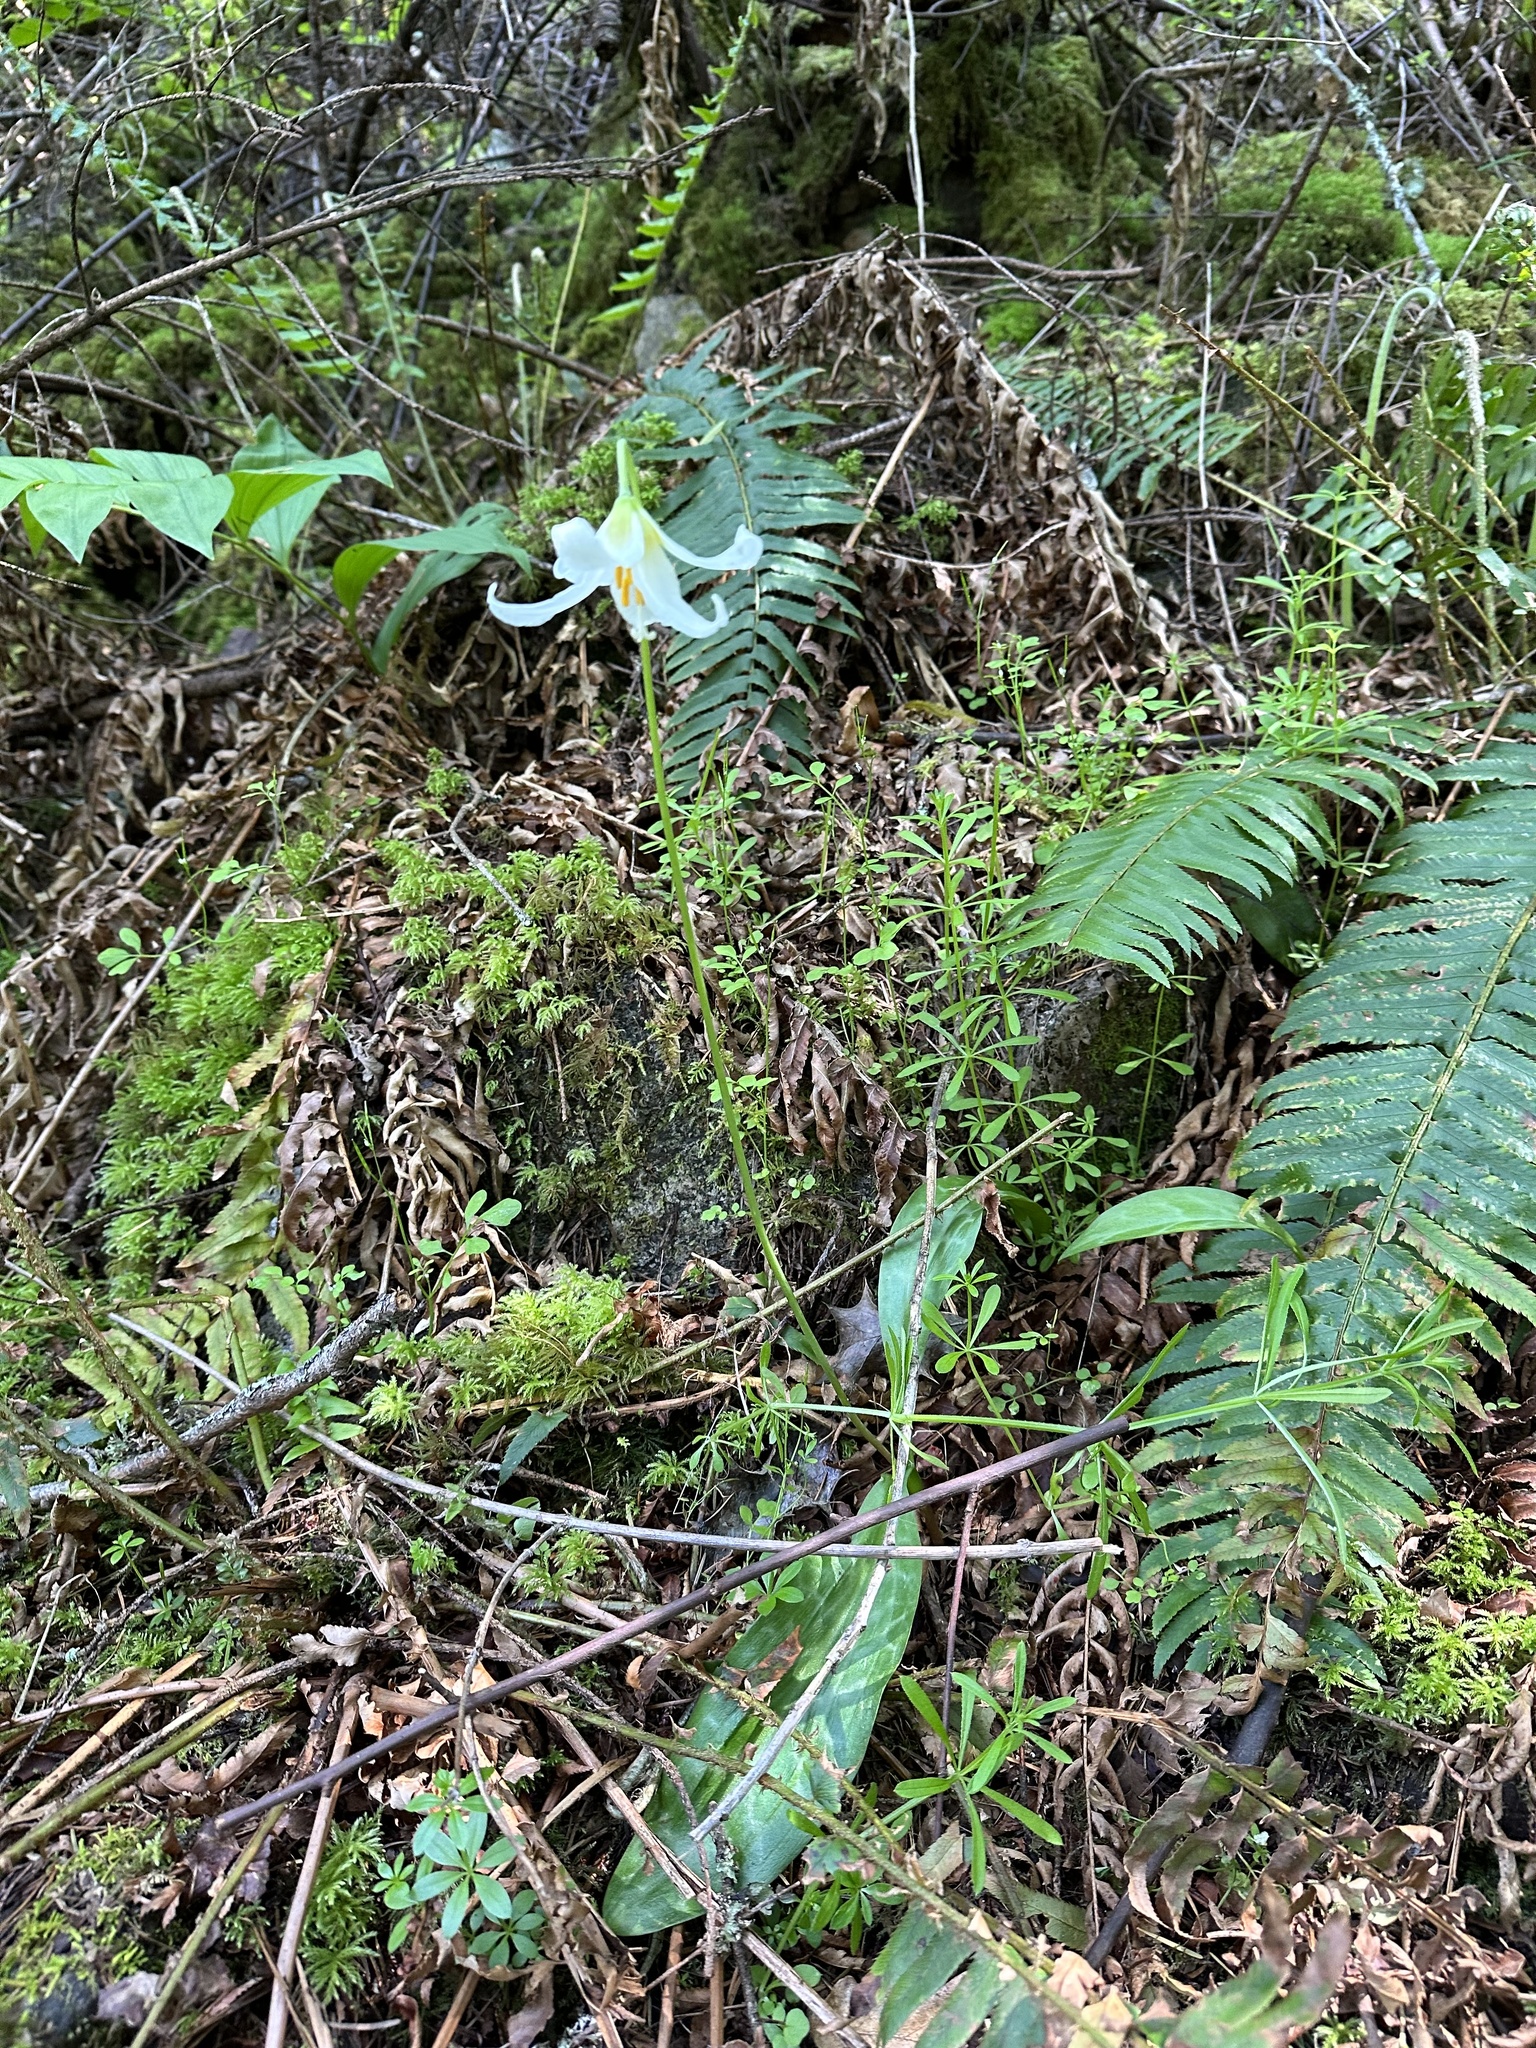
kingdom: Plantae
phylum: Tracheophyta
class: Liliopsida
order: Liliales
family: Liliaceae
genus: Erythronium
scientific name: Erythronium oregonum
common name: Giant adder's-tongue
